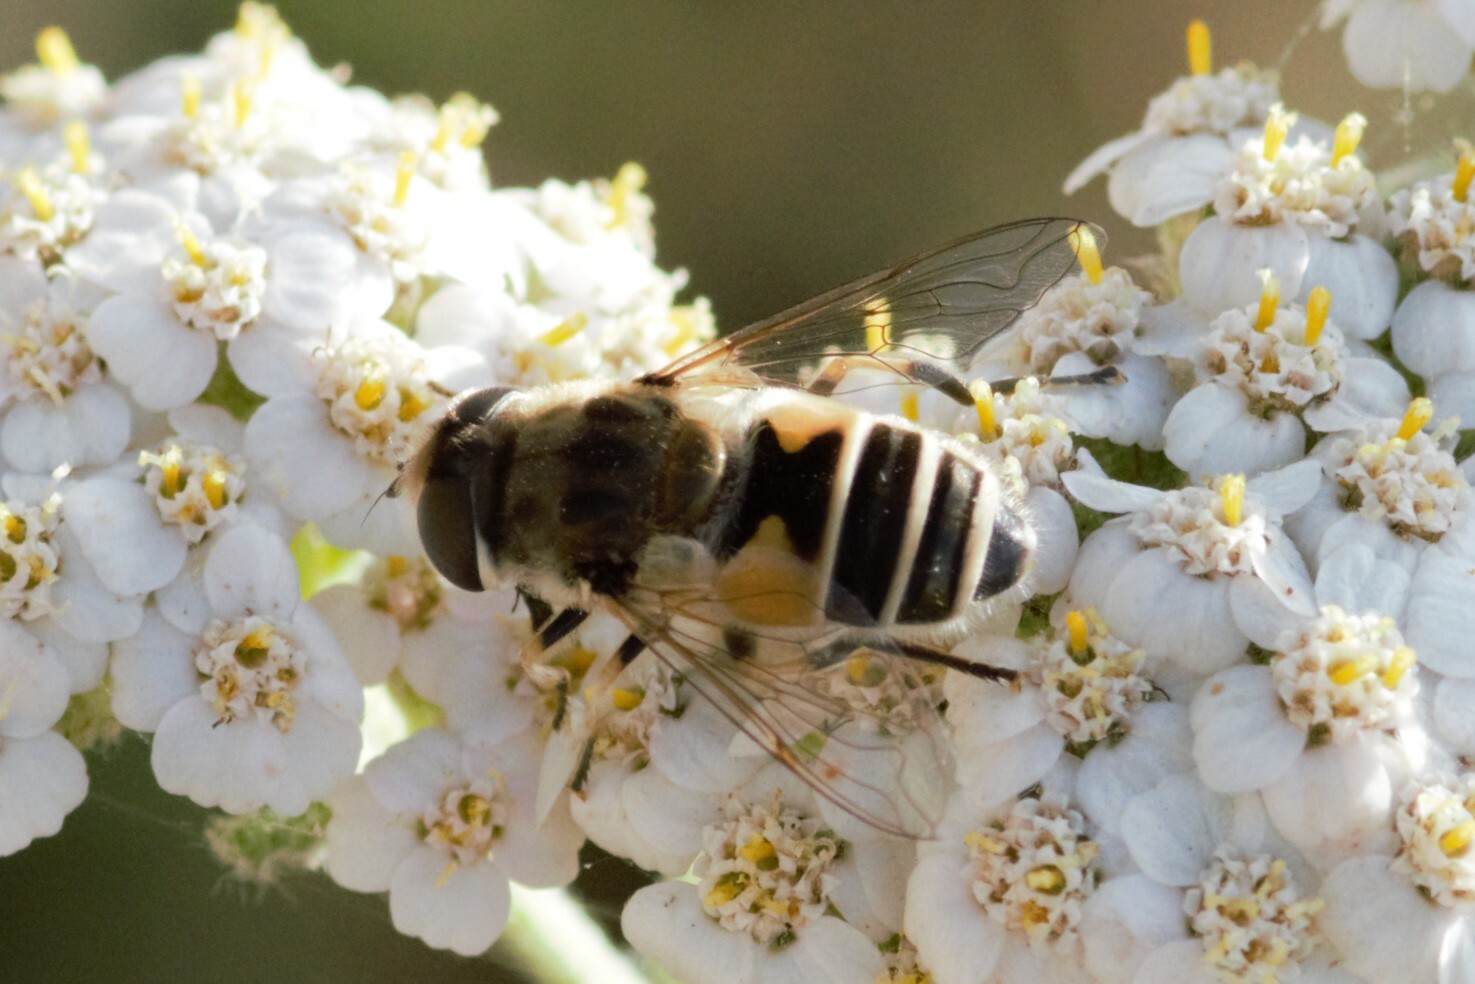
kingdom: Animalia
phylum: Arthropoda
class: Insecta
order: Diptera
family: Syrphidae
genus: Eristalis
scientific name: Eristalis arbustorum
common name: Hover fly
